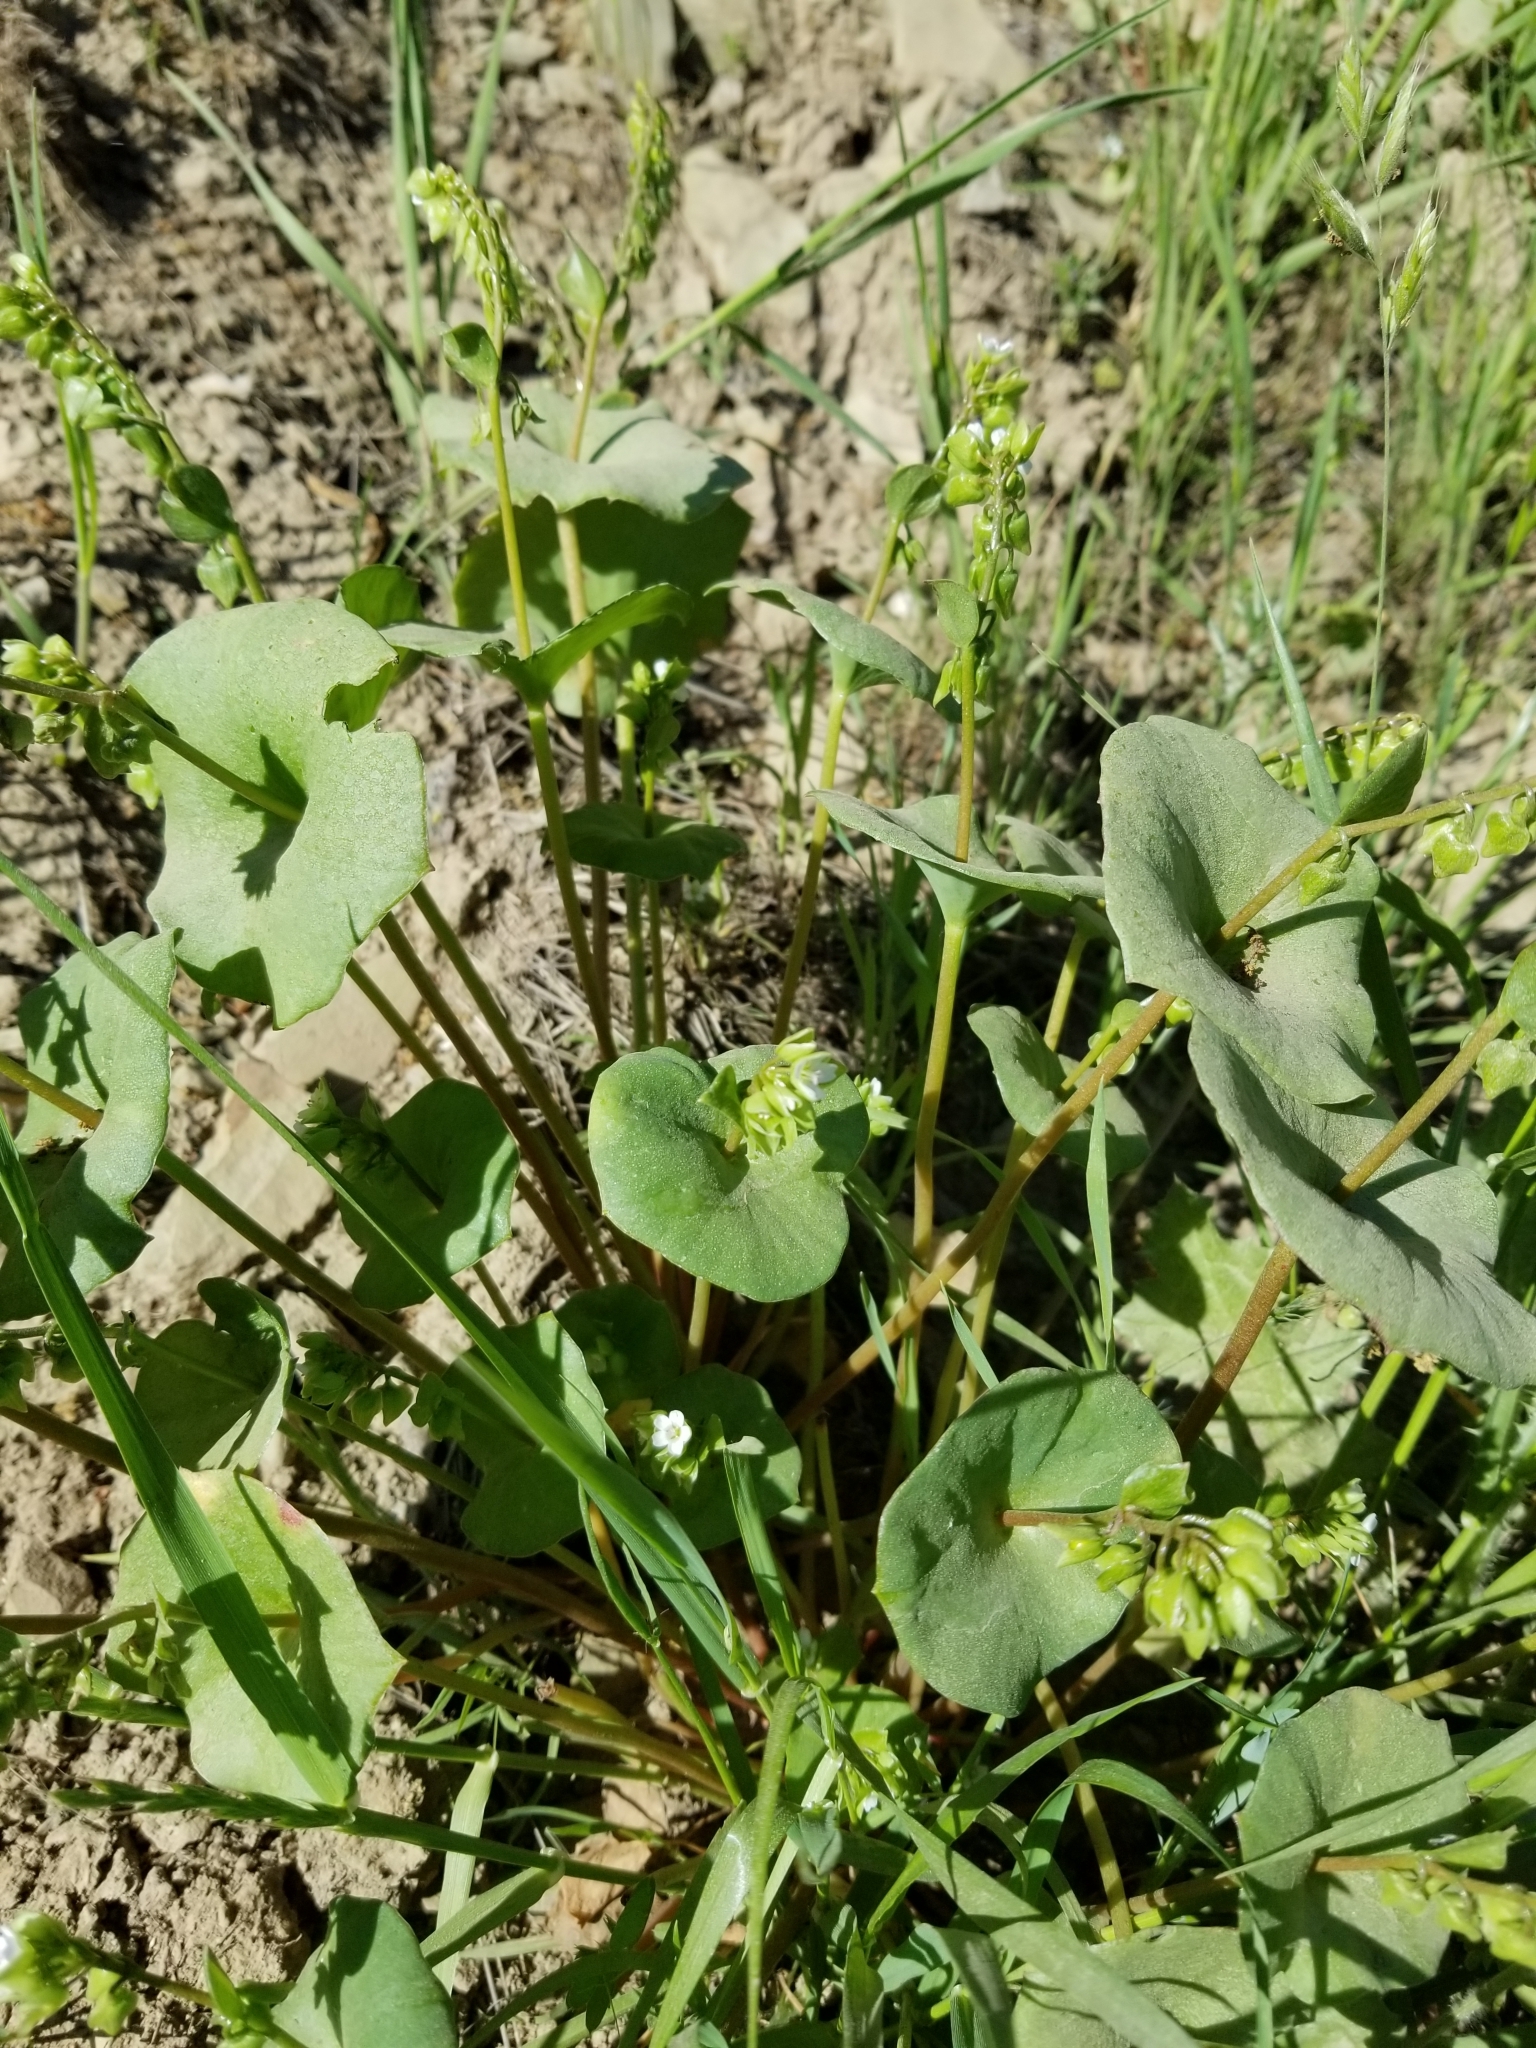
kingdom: Plantae
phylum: Tracheophyta
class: Magnoliopsida
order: Caryophyllales
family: Montiaceae
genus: Claytonia
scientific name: Claytonia perfoliata
